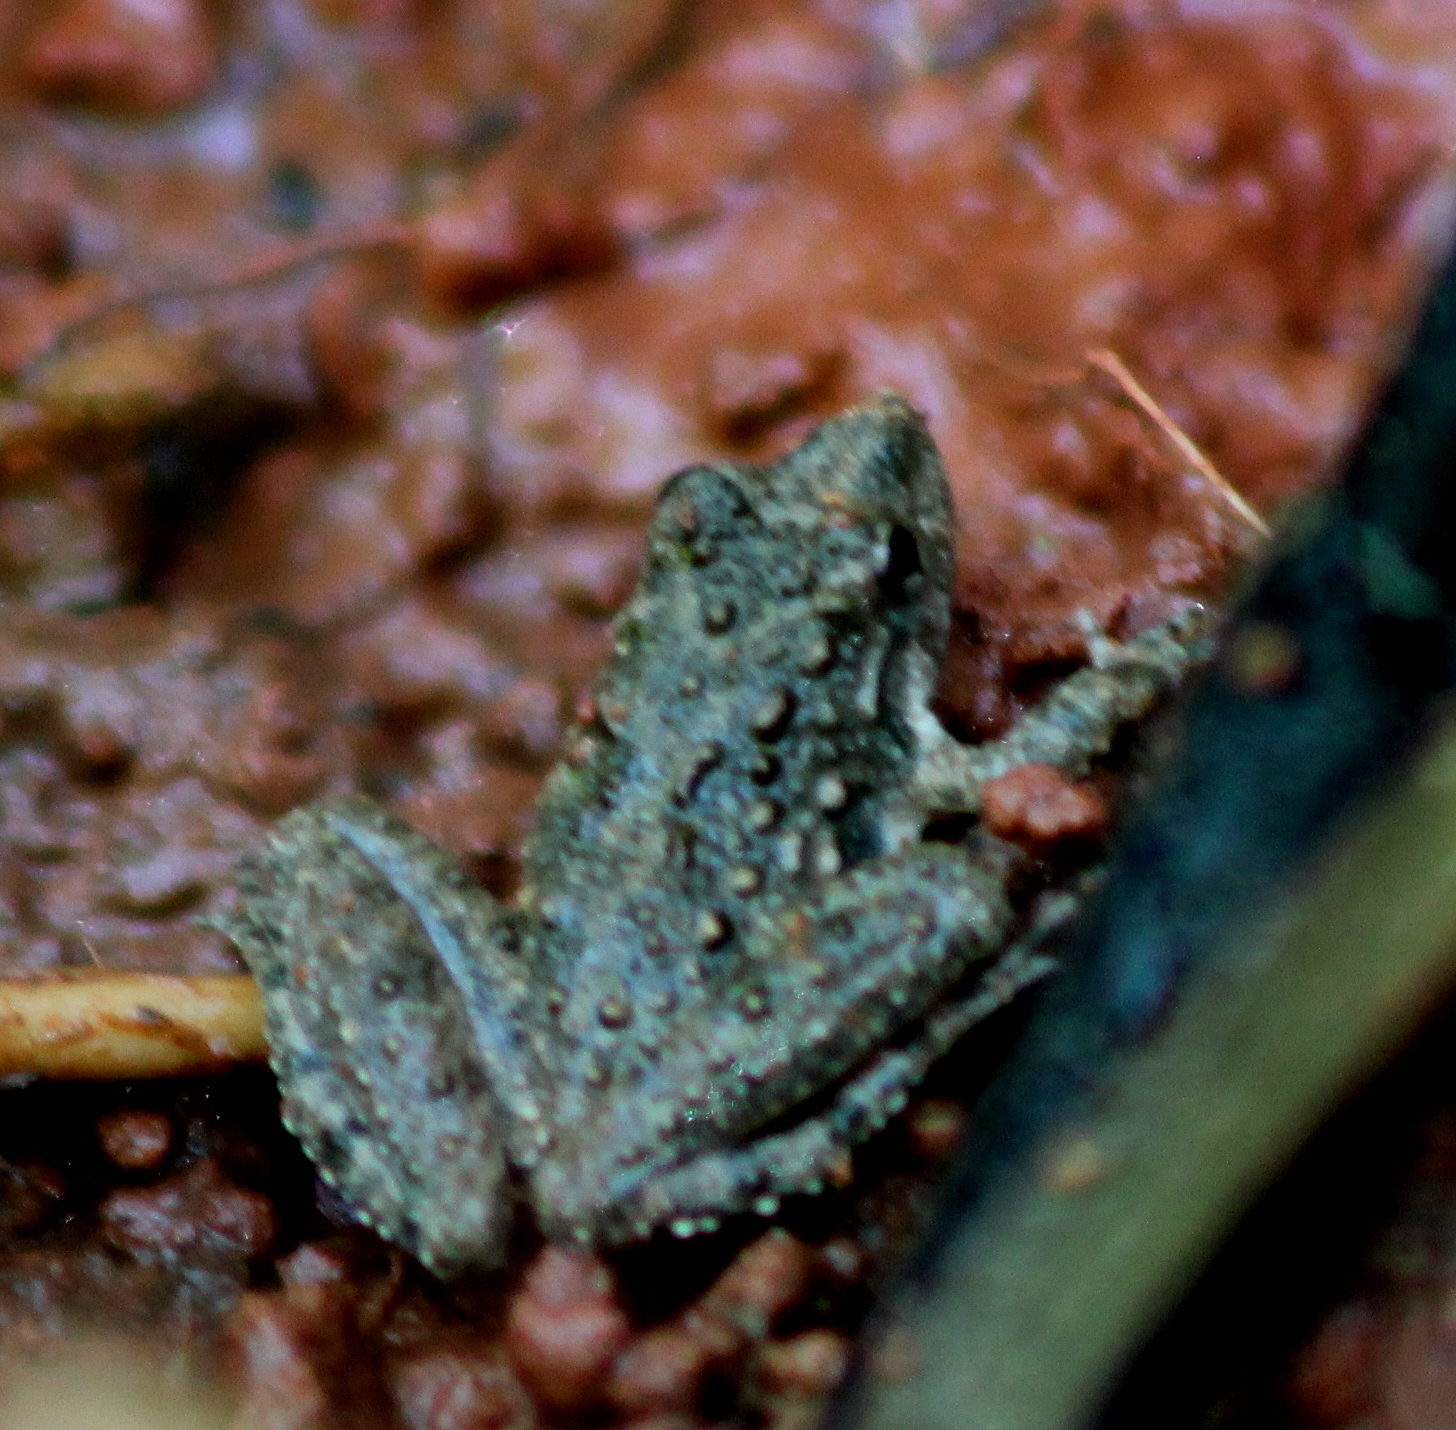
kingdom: Animalia
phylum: Chordata
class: Amphibia
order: Anura
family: Hylidae
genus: Acris
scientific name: Acris blanchardi
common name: Blanchard's cricket frog
